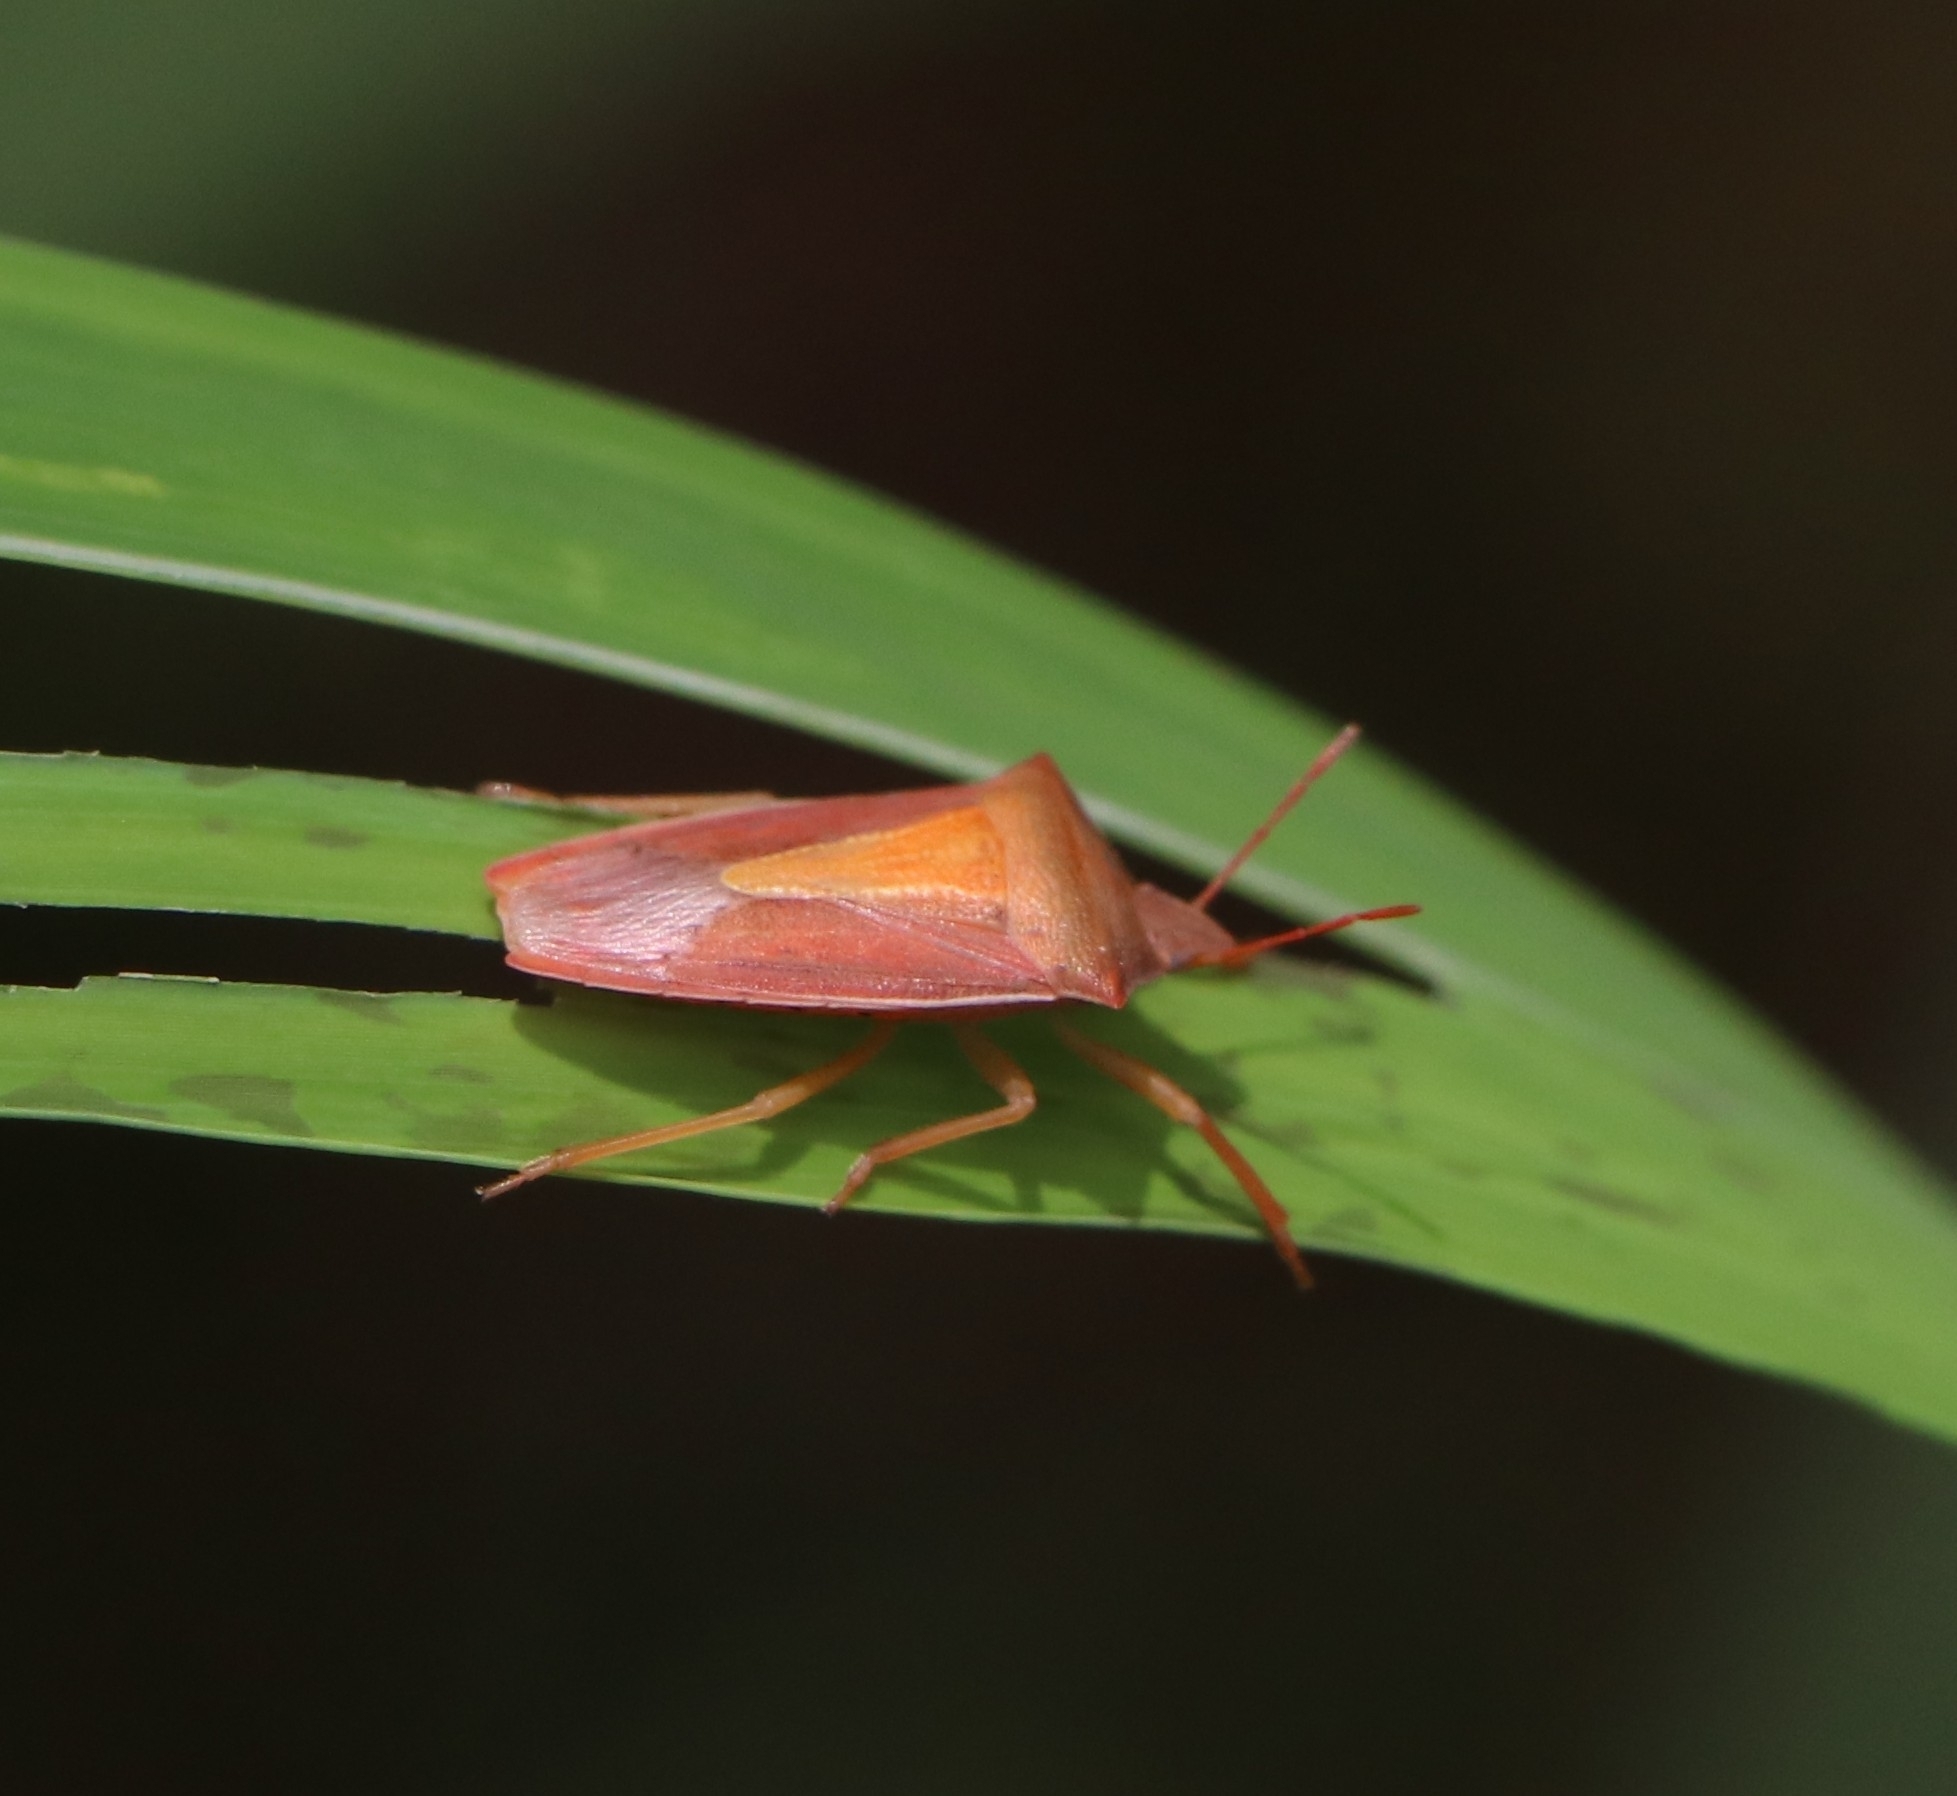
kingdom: Animalia
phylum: Arthropoda
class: Insecta
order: Hemiptera
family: Pentatomidae
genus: Gonopsis
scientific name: Gonopsis rubescens
